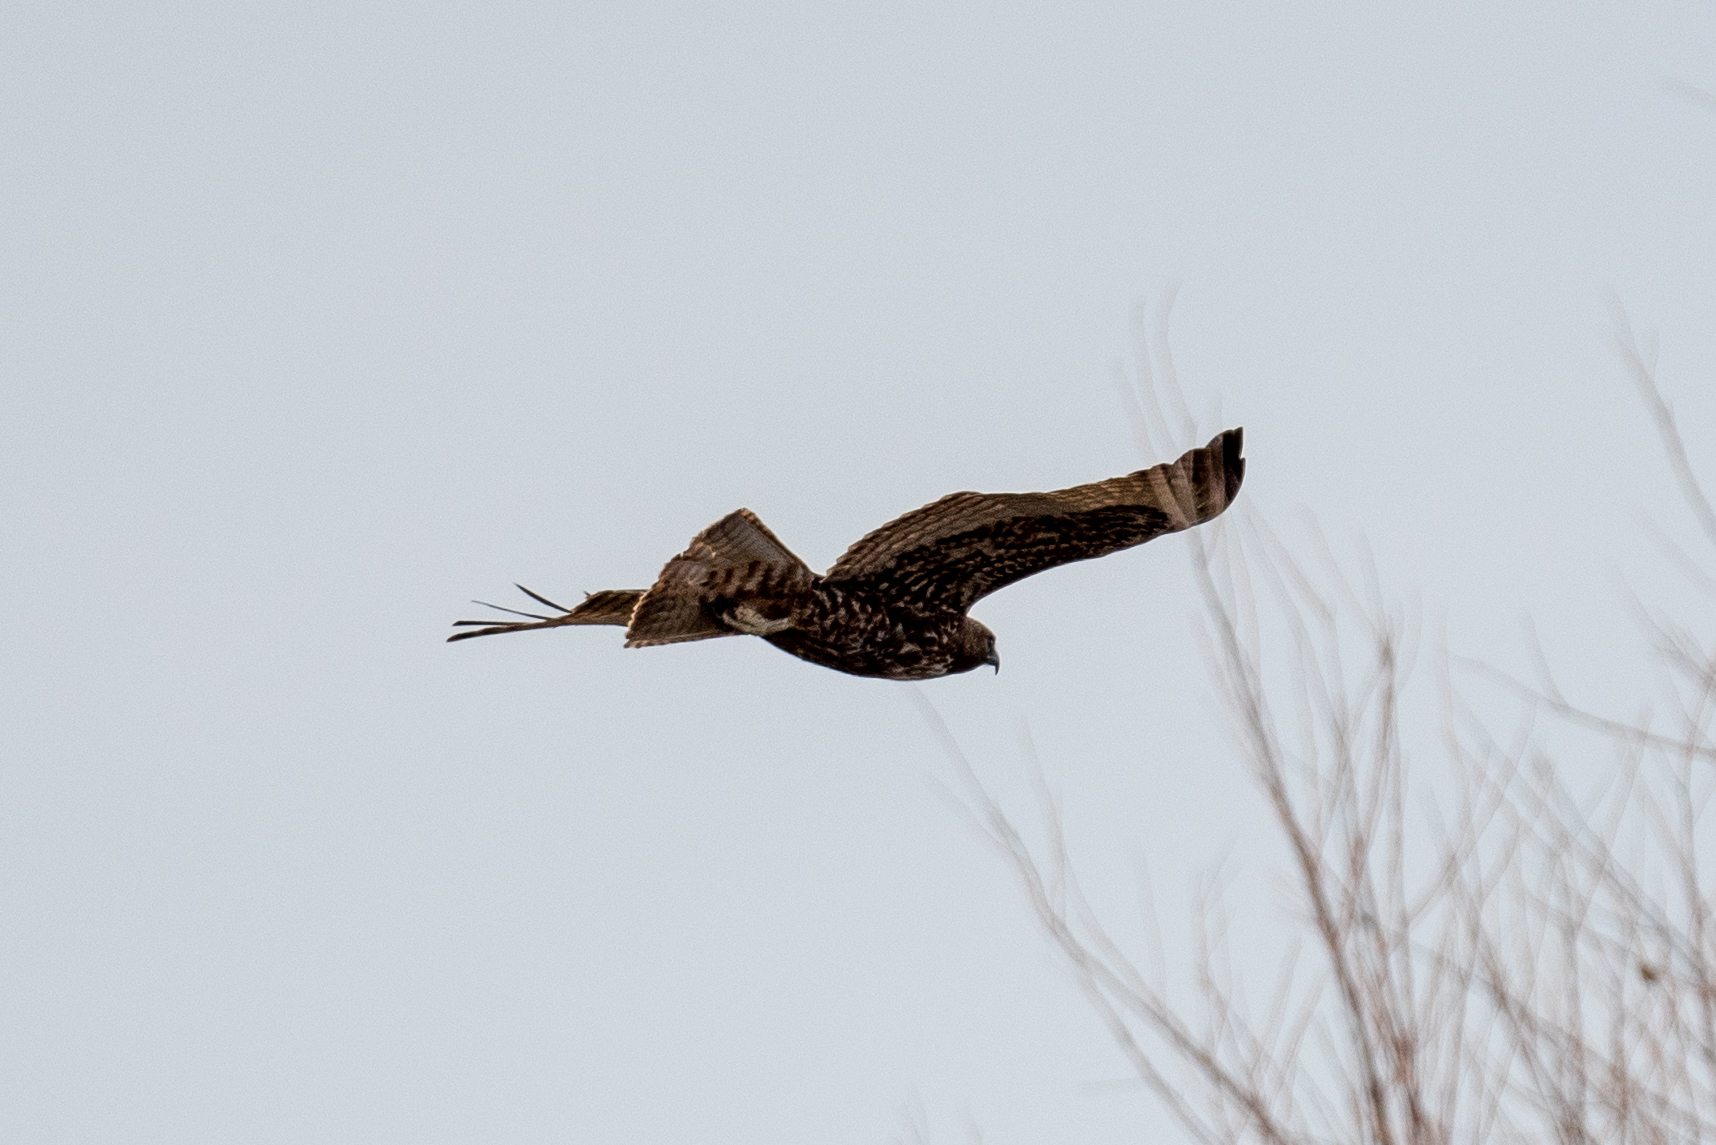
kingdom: Animalia
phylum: Chordata
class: Aves
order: Accipitriformes
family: Accipitridae
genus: Buteo
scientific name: Buteo jamaicensis
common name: Red-tailed hawk
